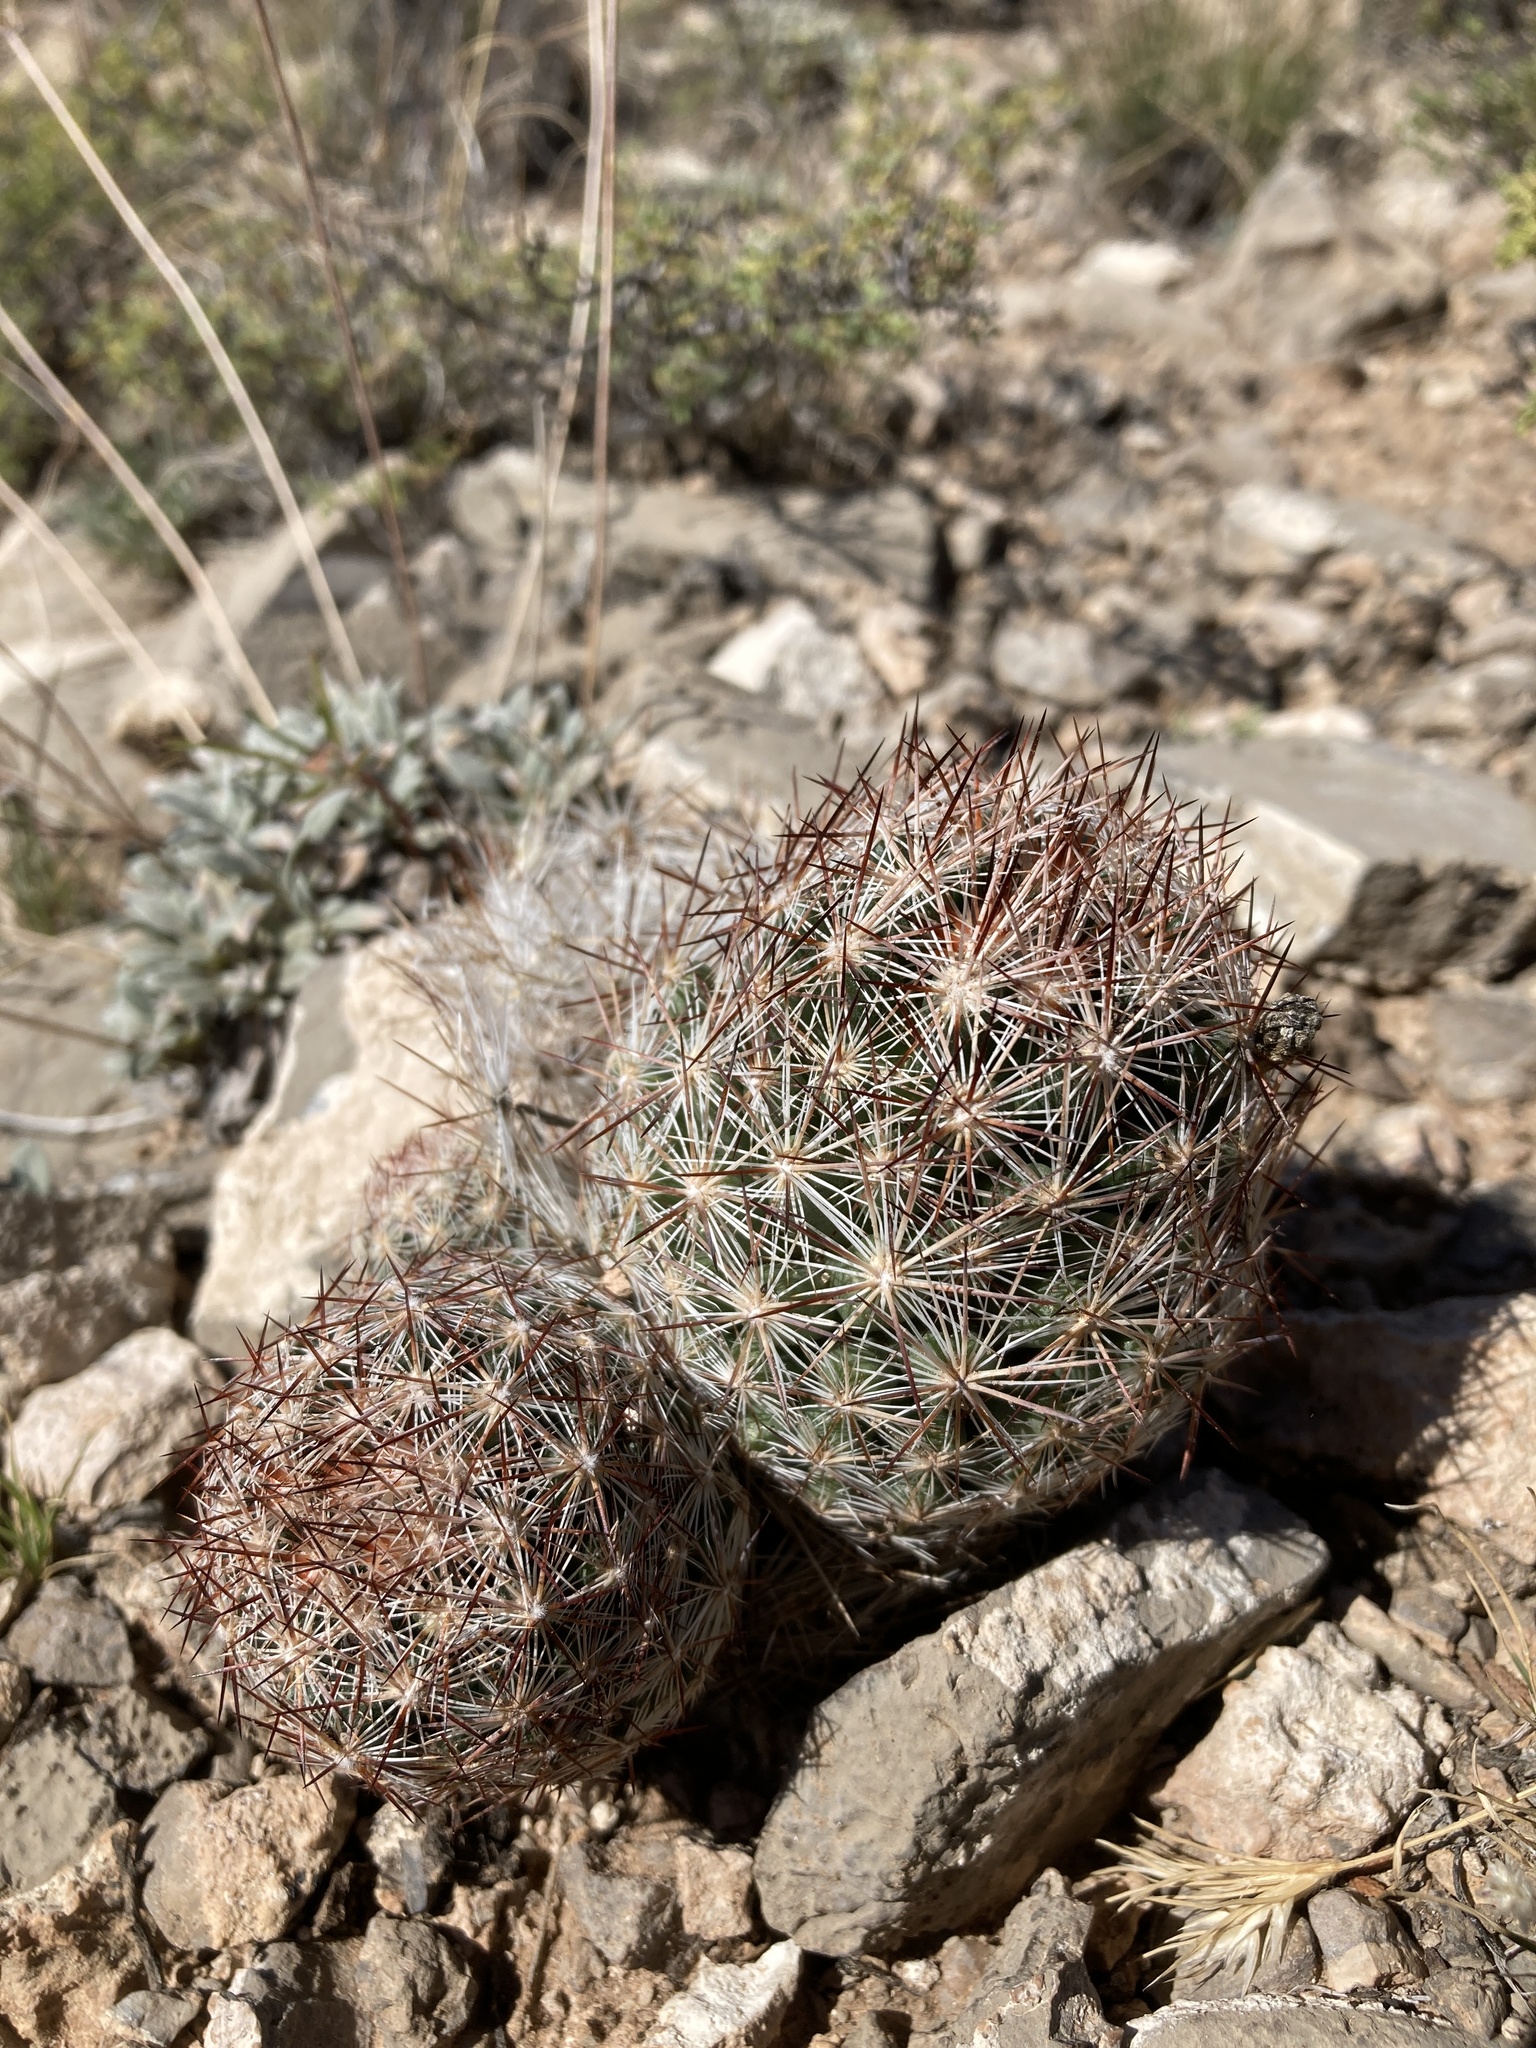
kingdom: Plantae
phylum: Tracheophyta
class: Magnoliopsida
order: Caryophyllales
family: Cactaceae
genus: Pelecyphora
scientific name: Pelecyphora vivipara
